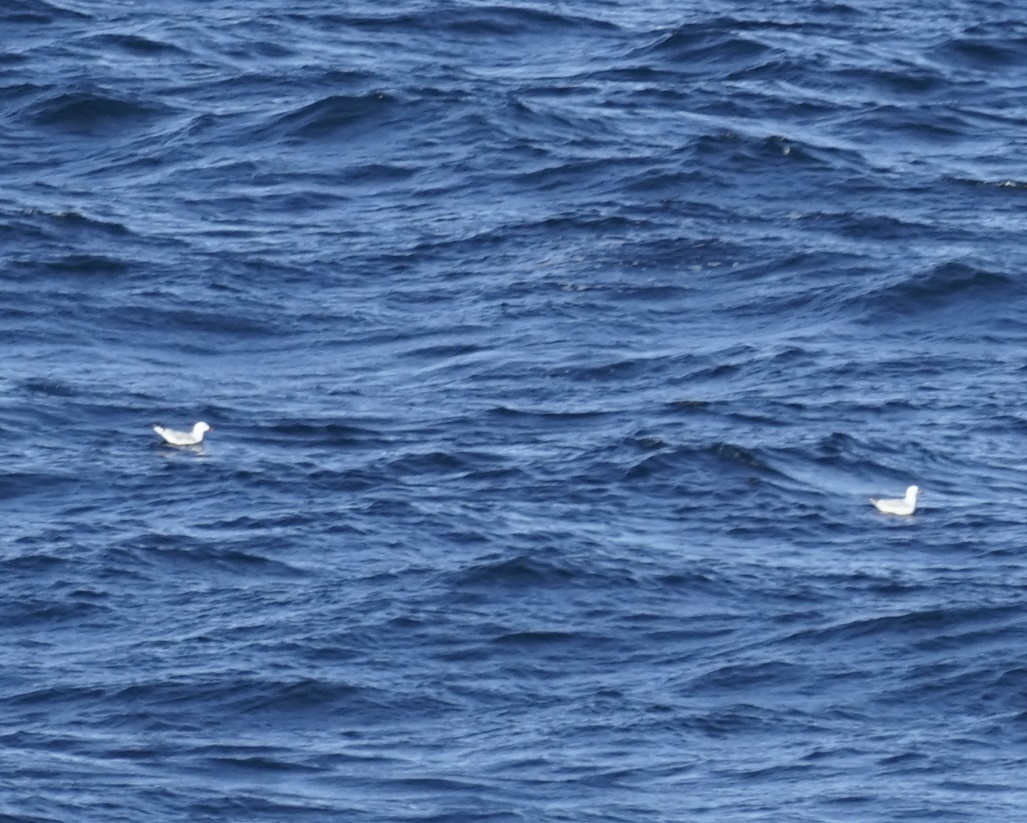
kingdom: Animalia
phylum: Chordata
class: Aves
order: Charadriiformes
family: Laridae
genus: Chroicocephalus
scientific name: Chroicocephalus novaehollandiae
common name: Silver gull
